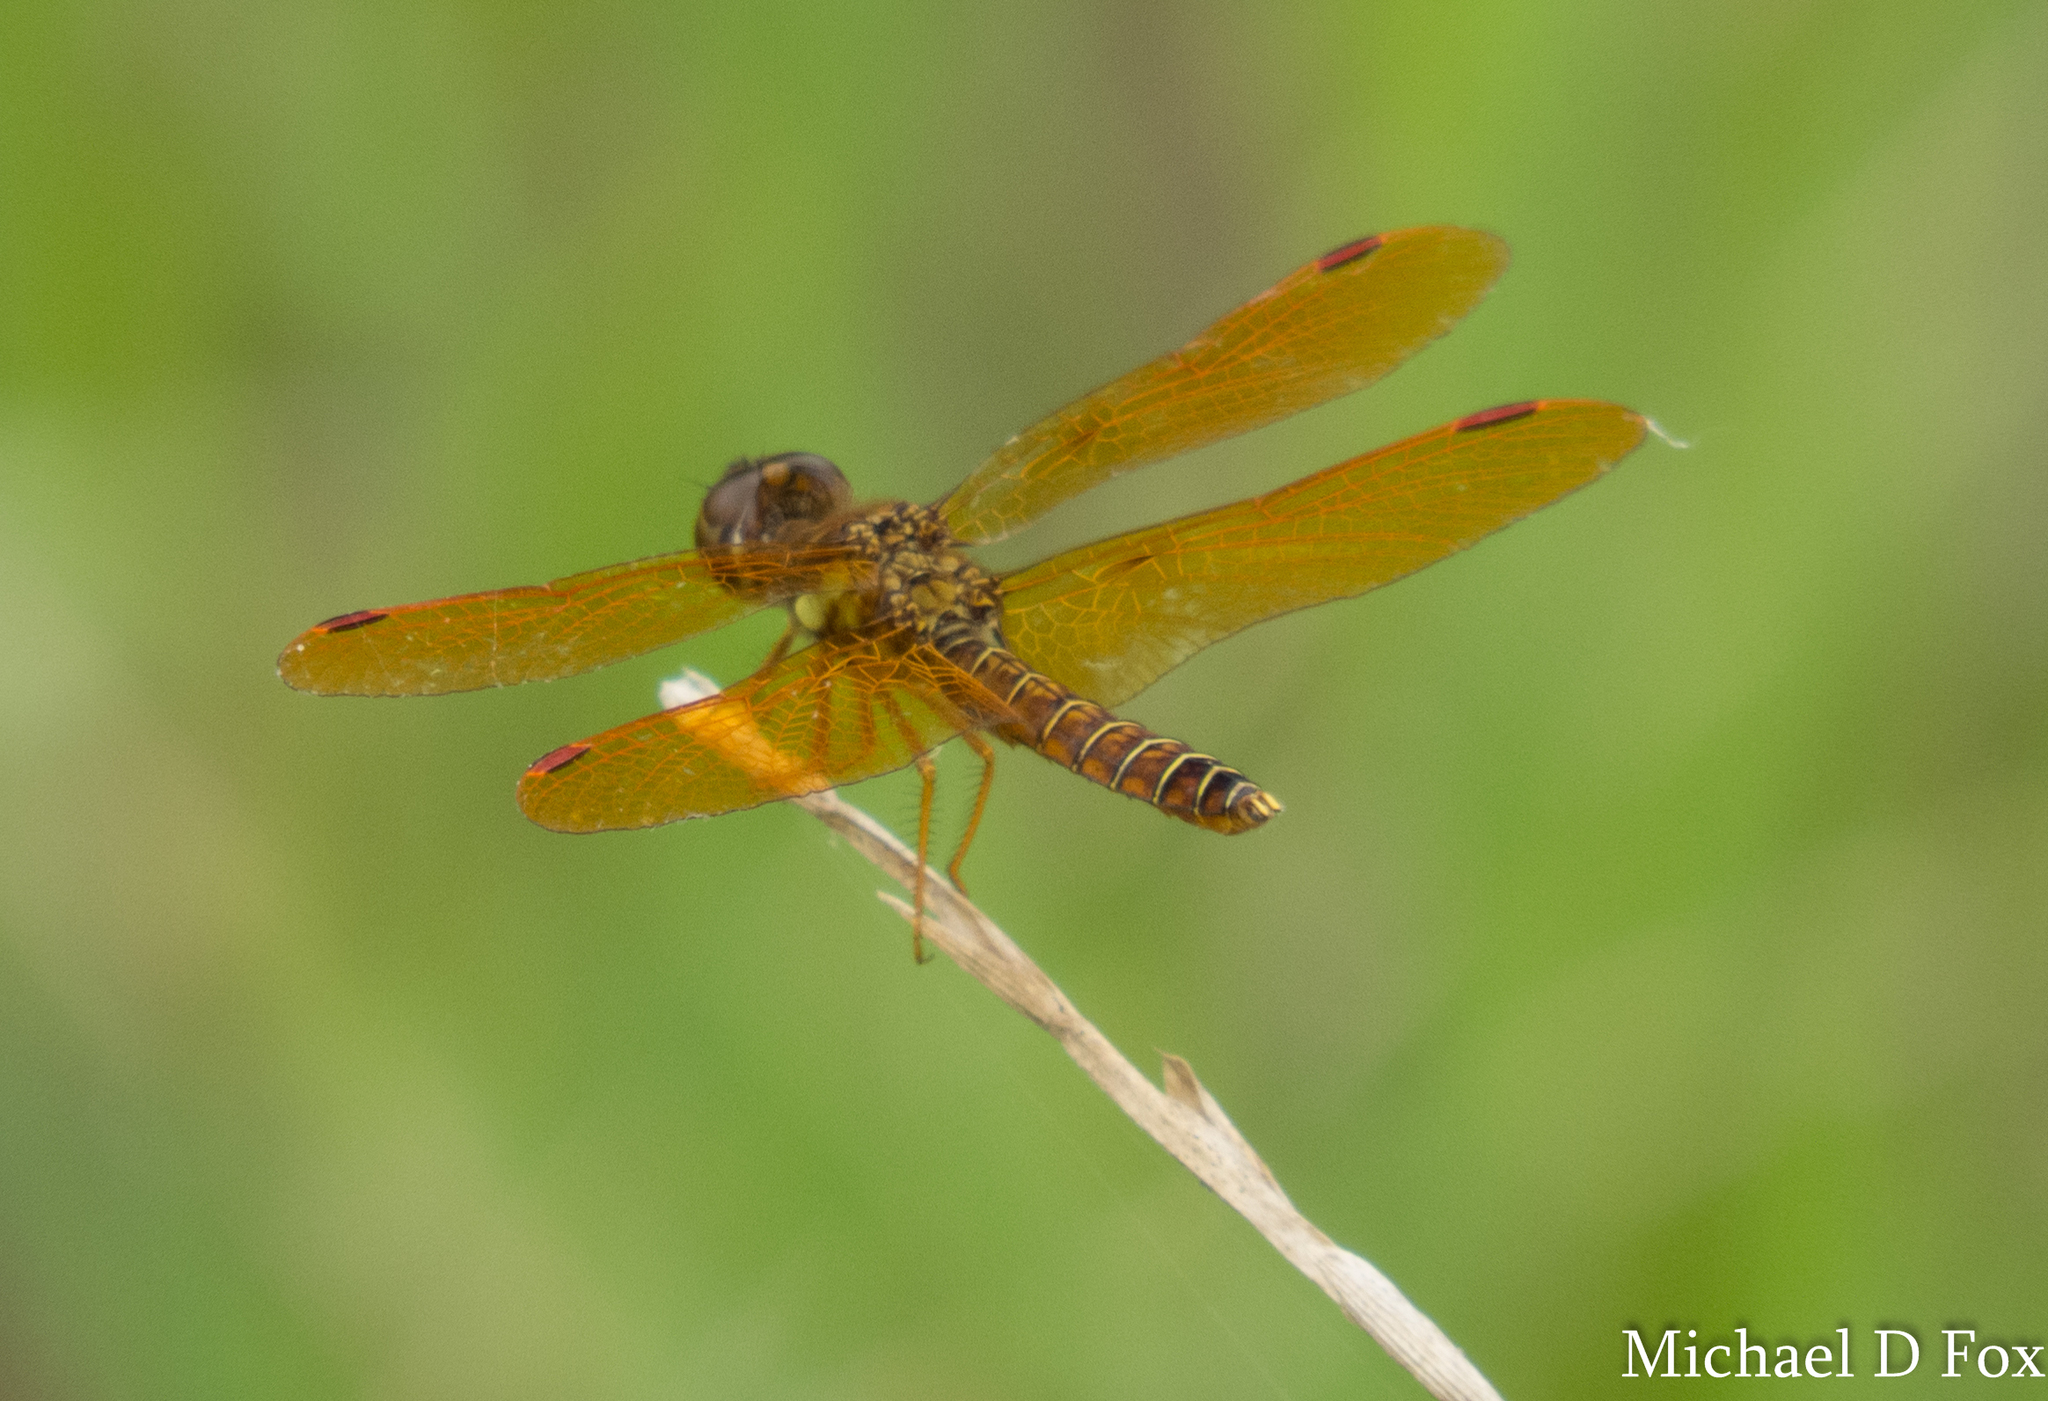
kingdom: Animalia
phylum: Arthropoda
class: Insecta
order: Odonata
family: Libellulidae
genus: Perithemis
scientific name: Perithemis tenera
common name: Eastern amberwing
